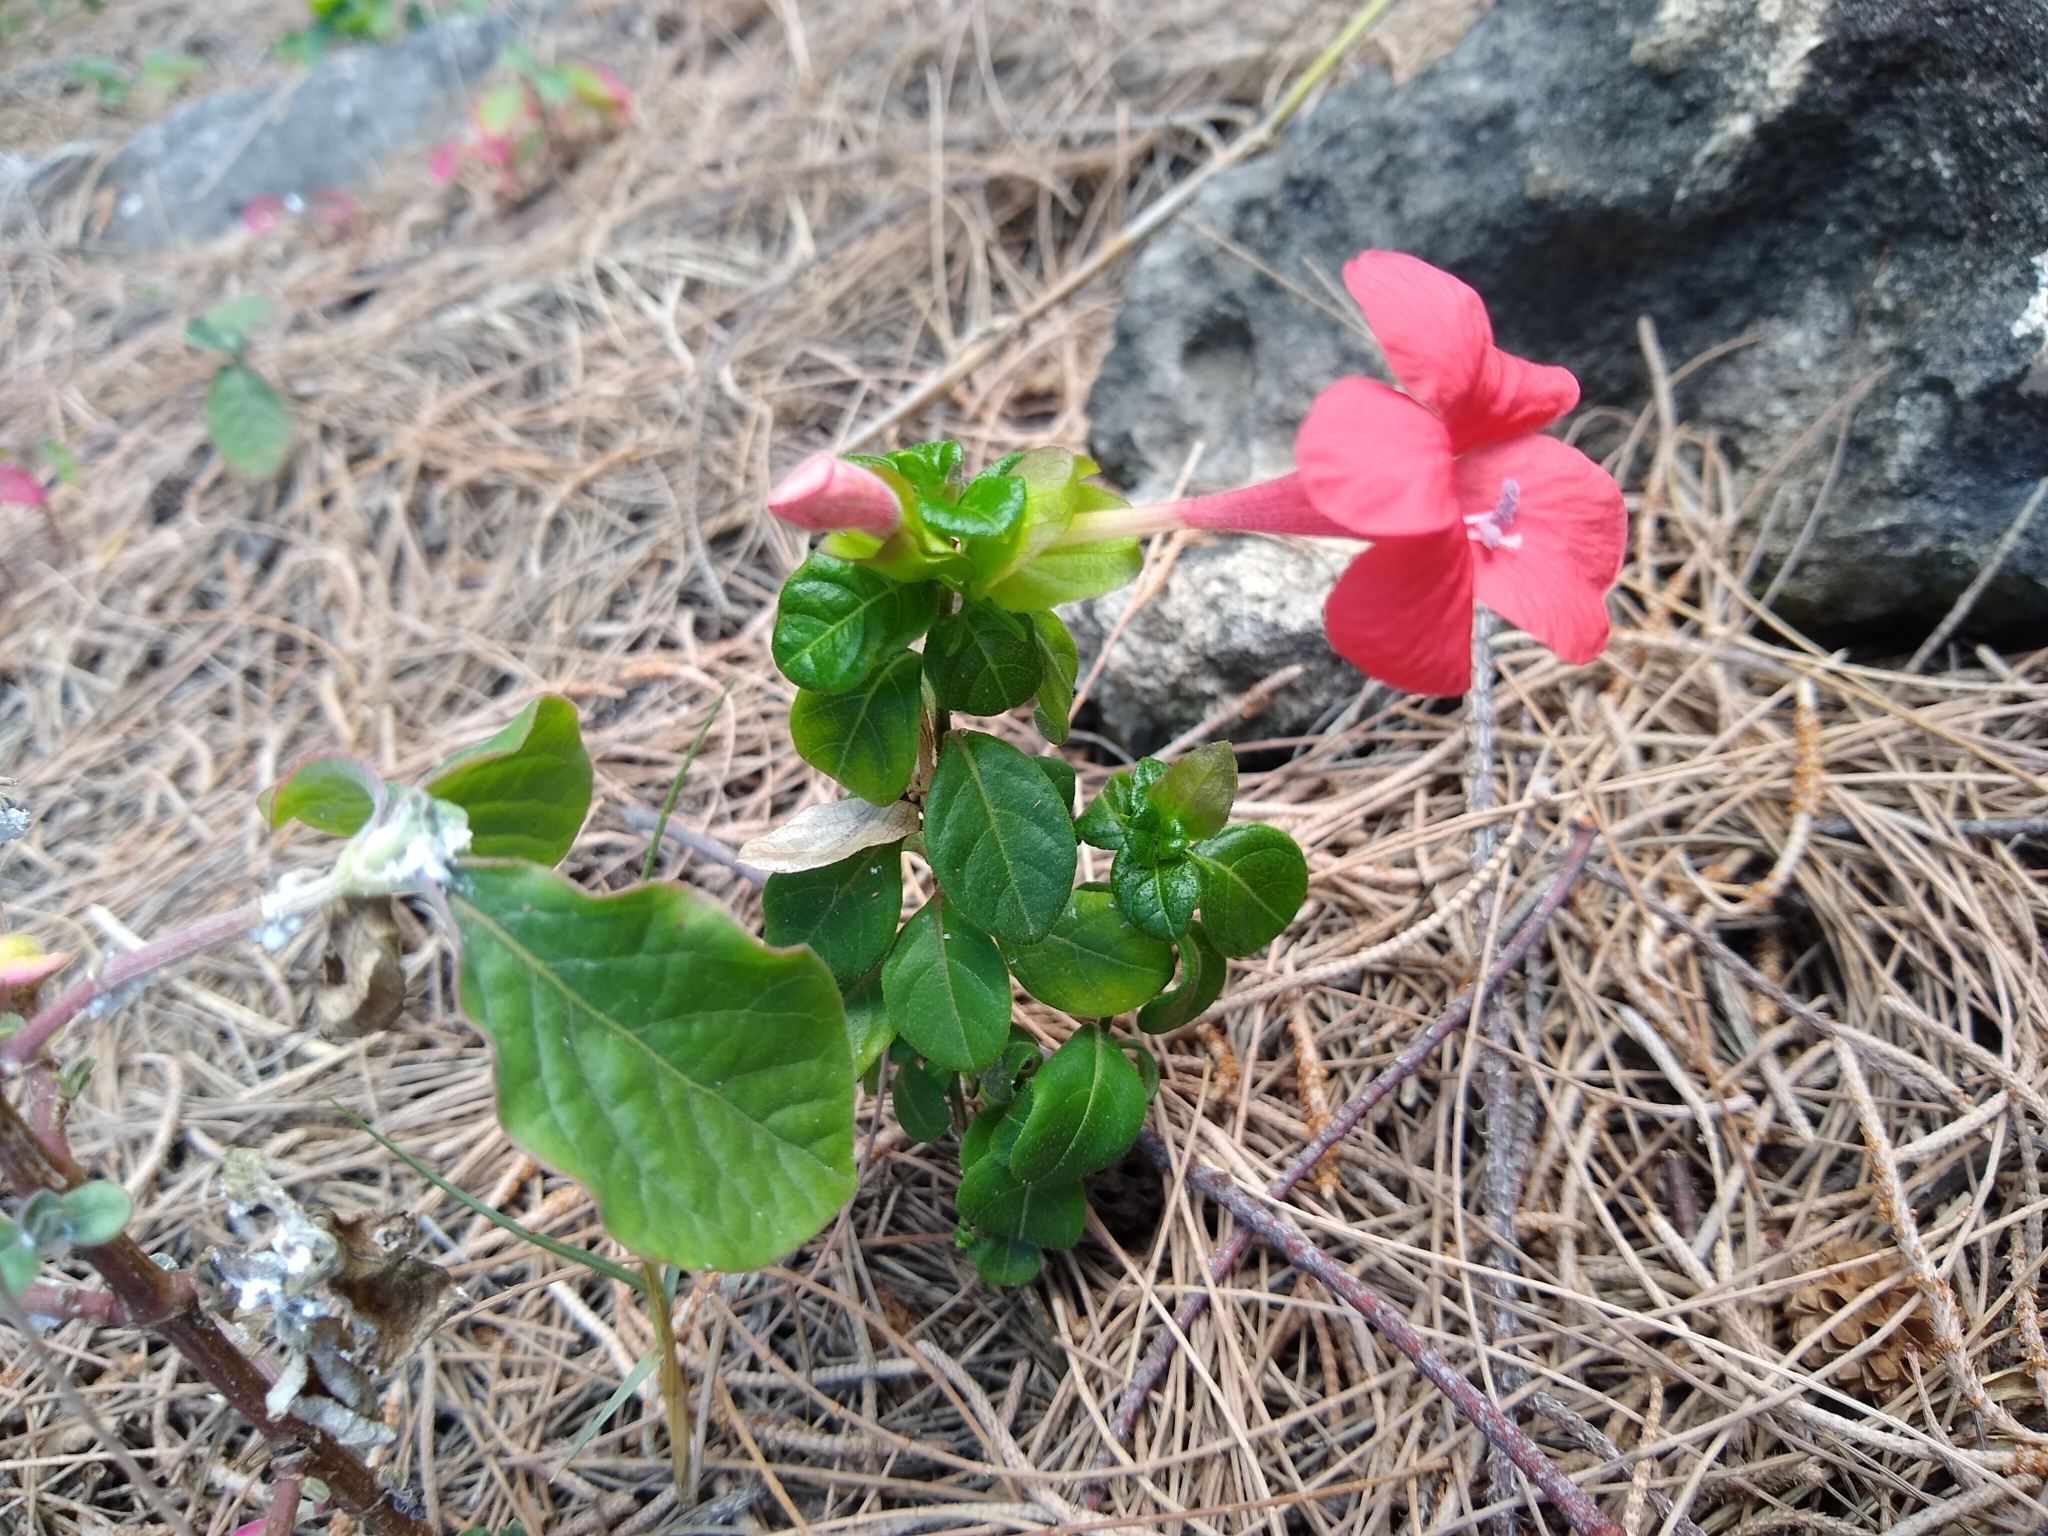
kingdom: Plantae
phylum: Tracheophyta
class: Magnoliopsida
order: Lamiales
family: Acanthaceae
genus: Barleria
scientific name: Barleria repens
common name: Pink-ruellia
